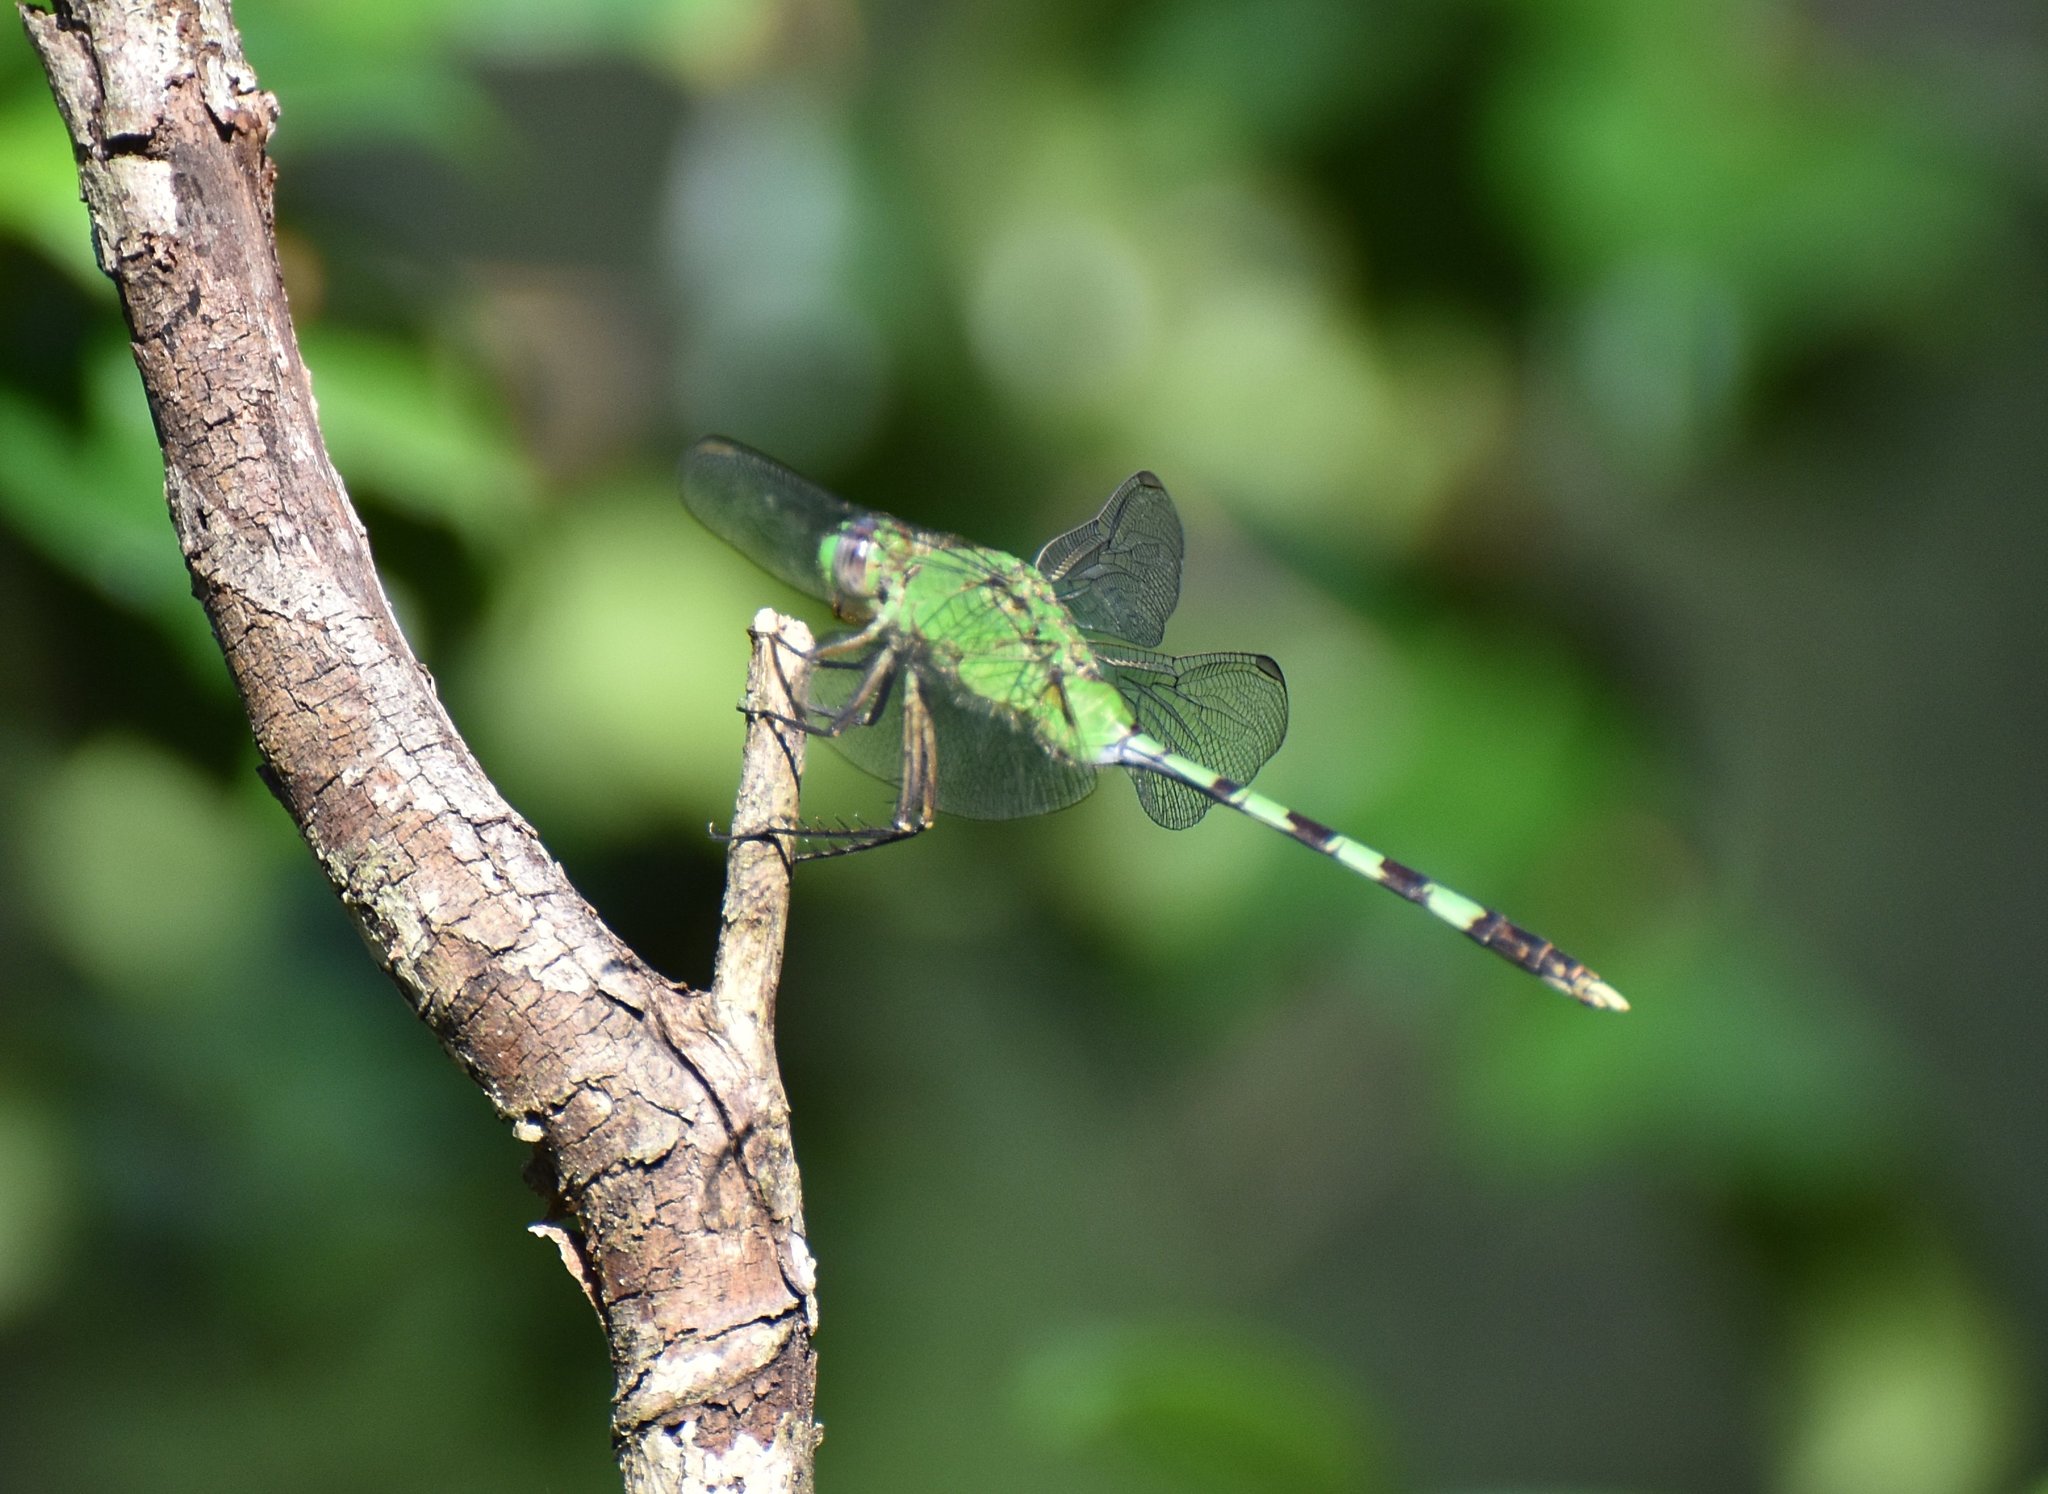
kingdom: Animalia
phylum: Arthropoda
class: Insecta
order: Odonata
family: Libellulidae
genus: Erythemis
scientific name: Erythemis vesiculosa
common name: Great pondhawk
